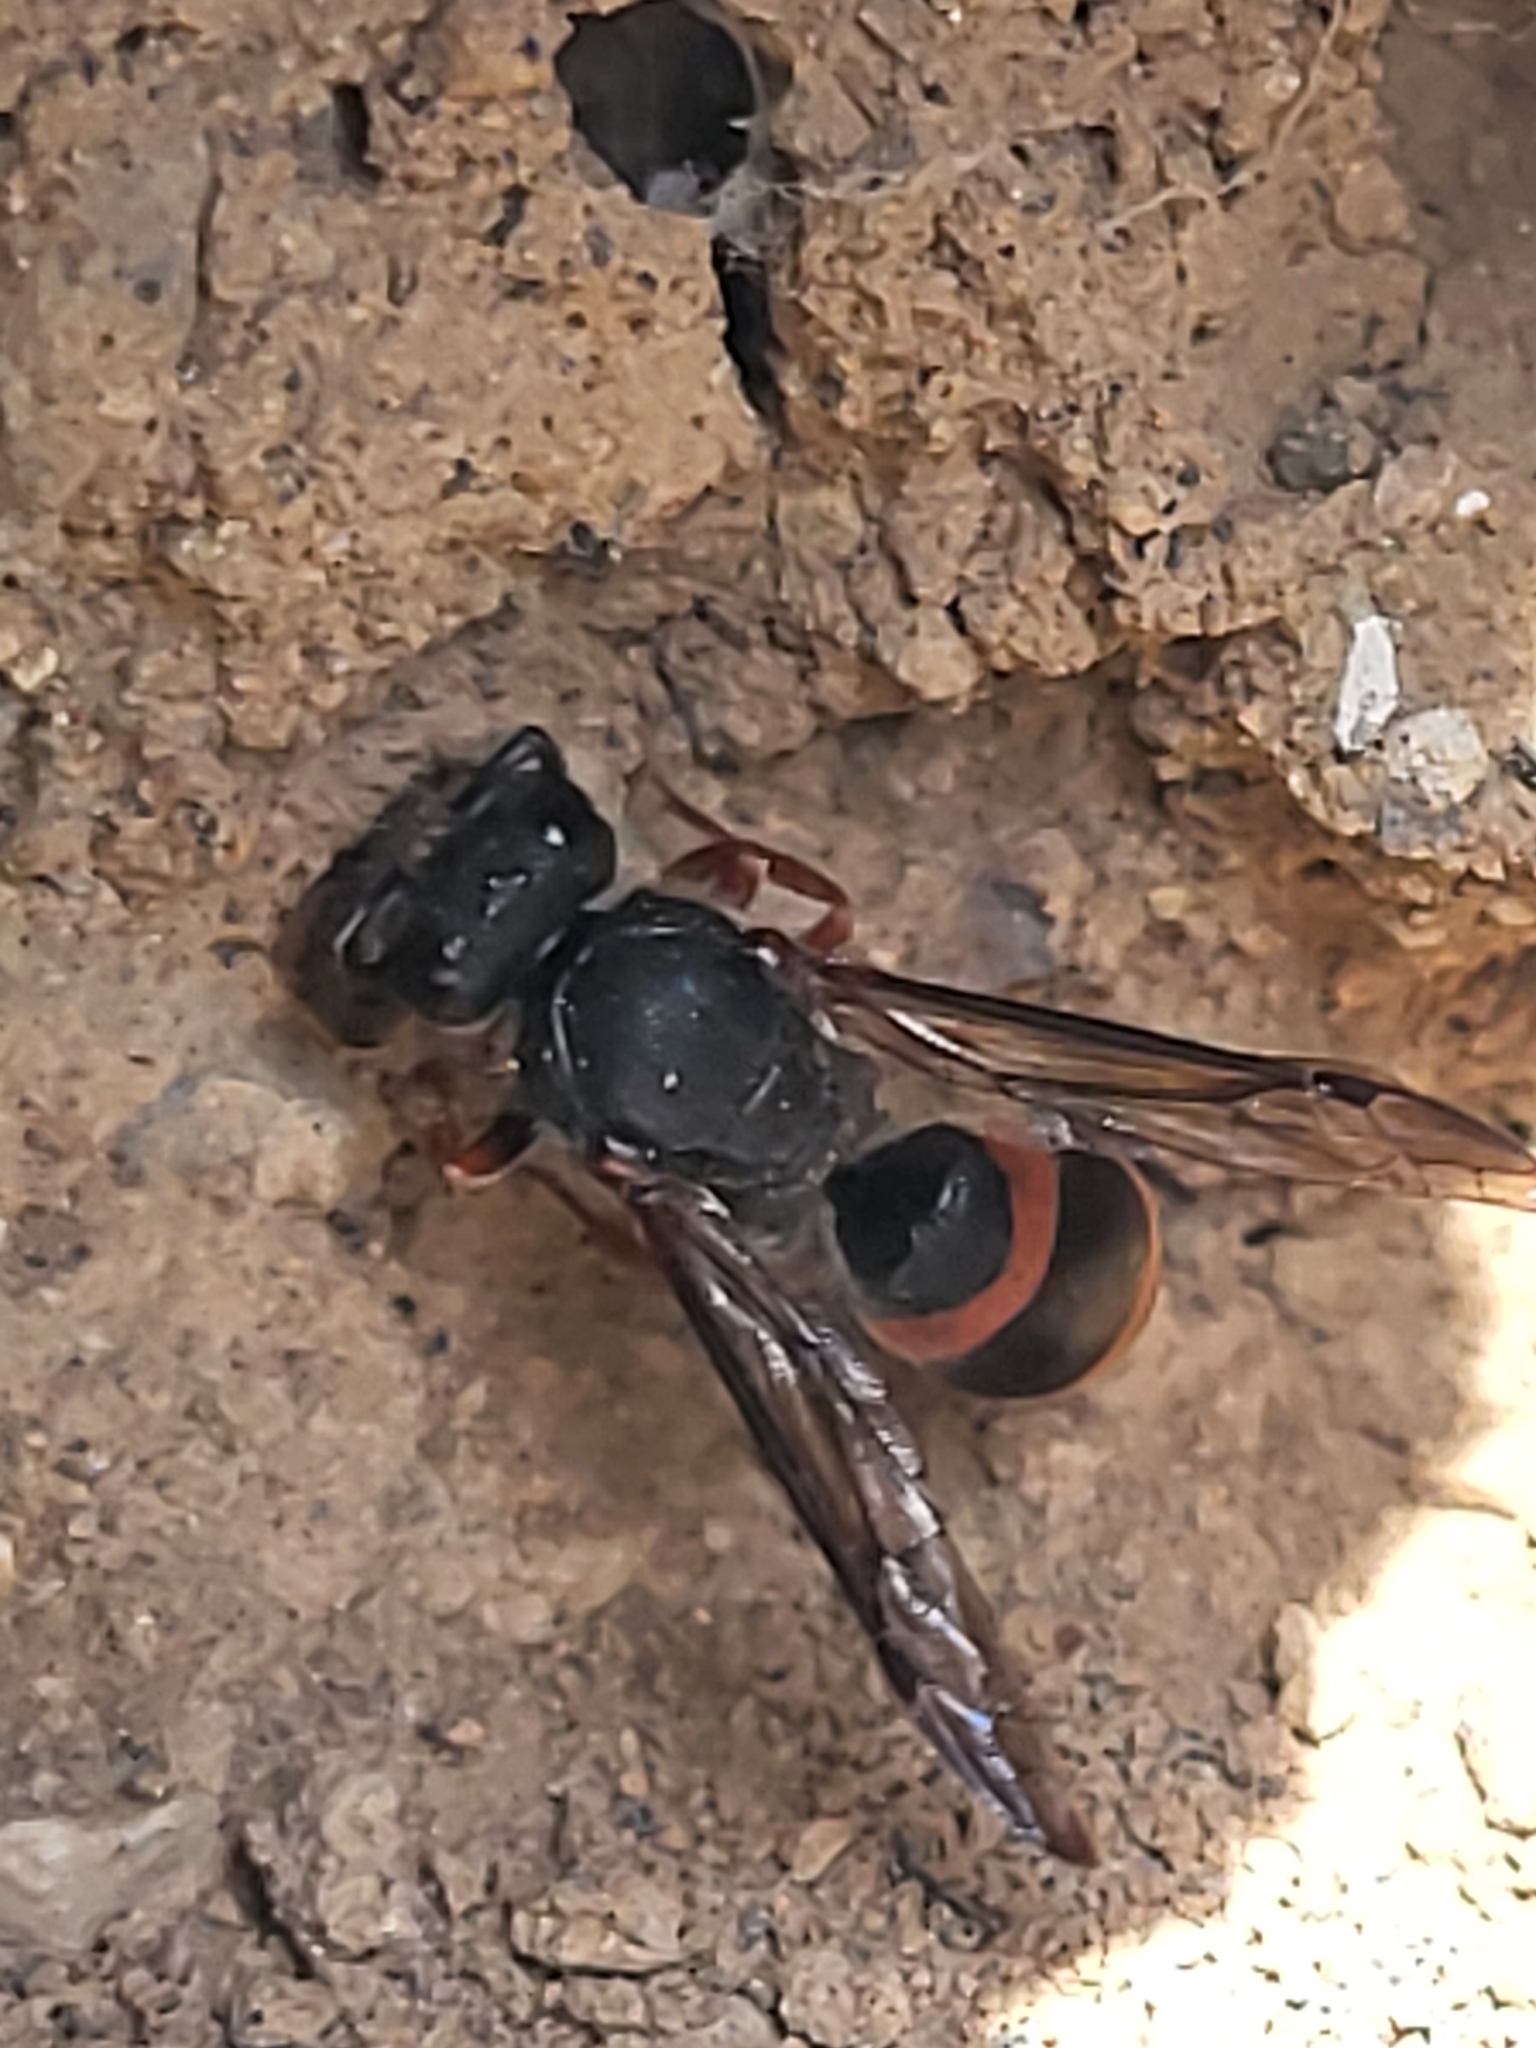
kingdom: Animalia
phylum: Arthropoda
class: Insecta
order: Hymenoptera
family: Vespidae
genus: Ancistrocerus
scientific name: Ancistrocerus atlanticus
